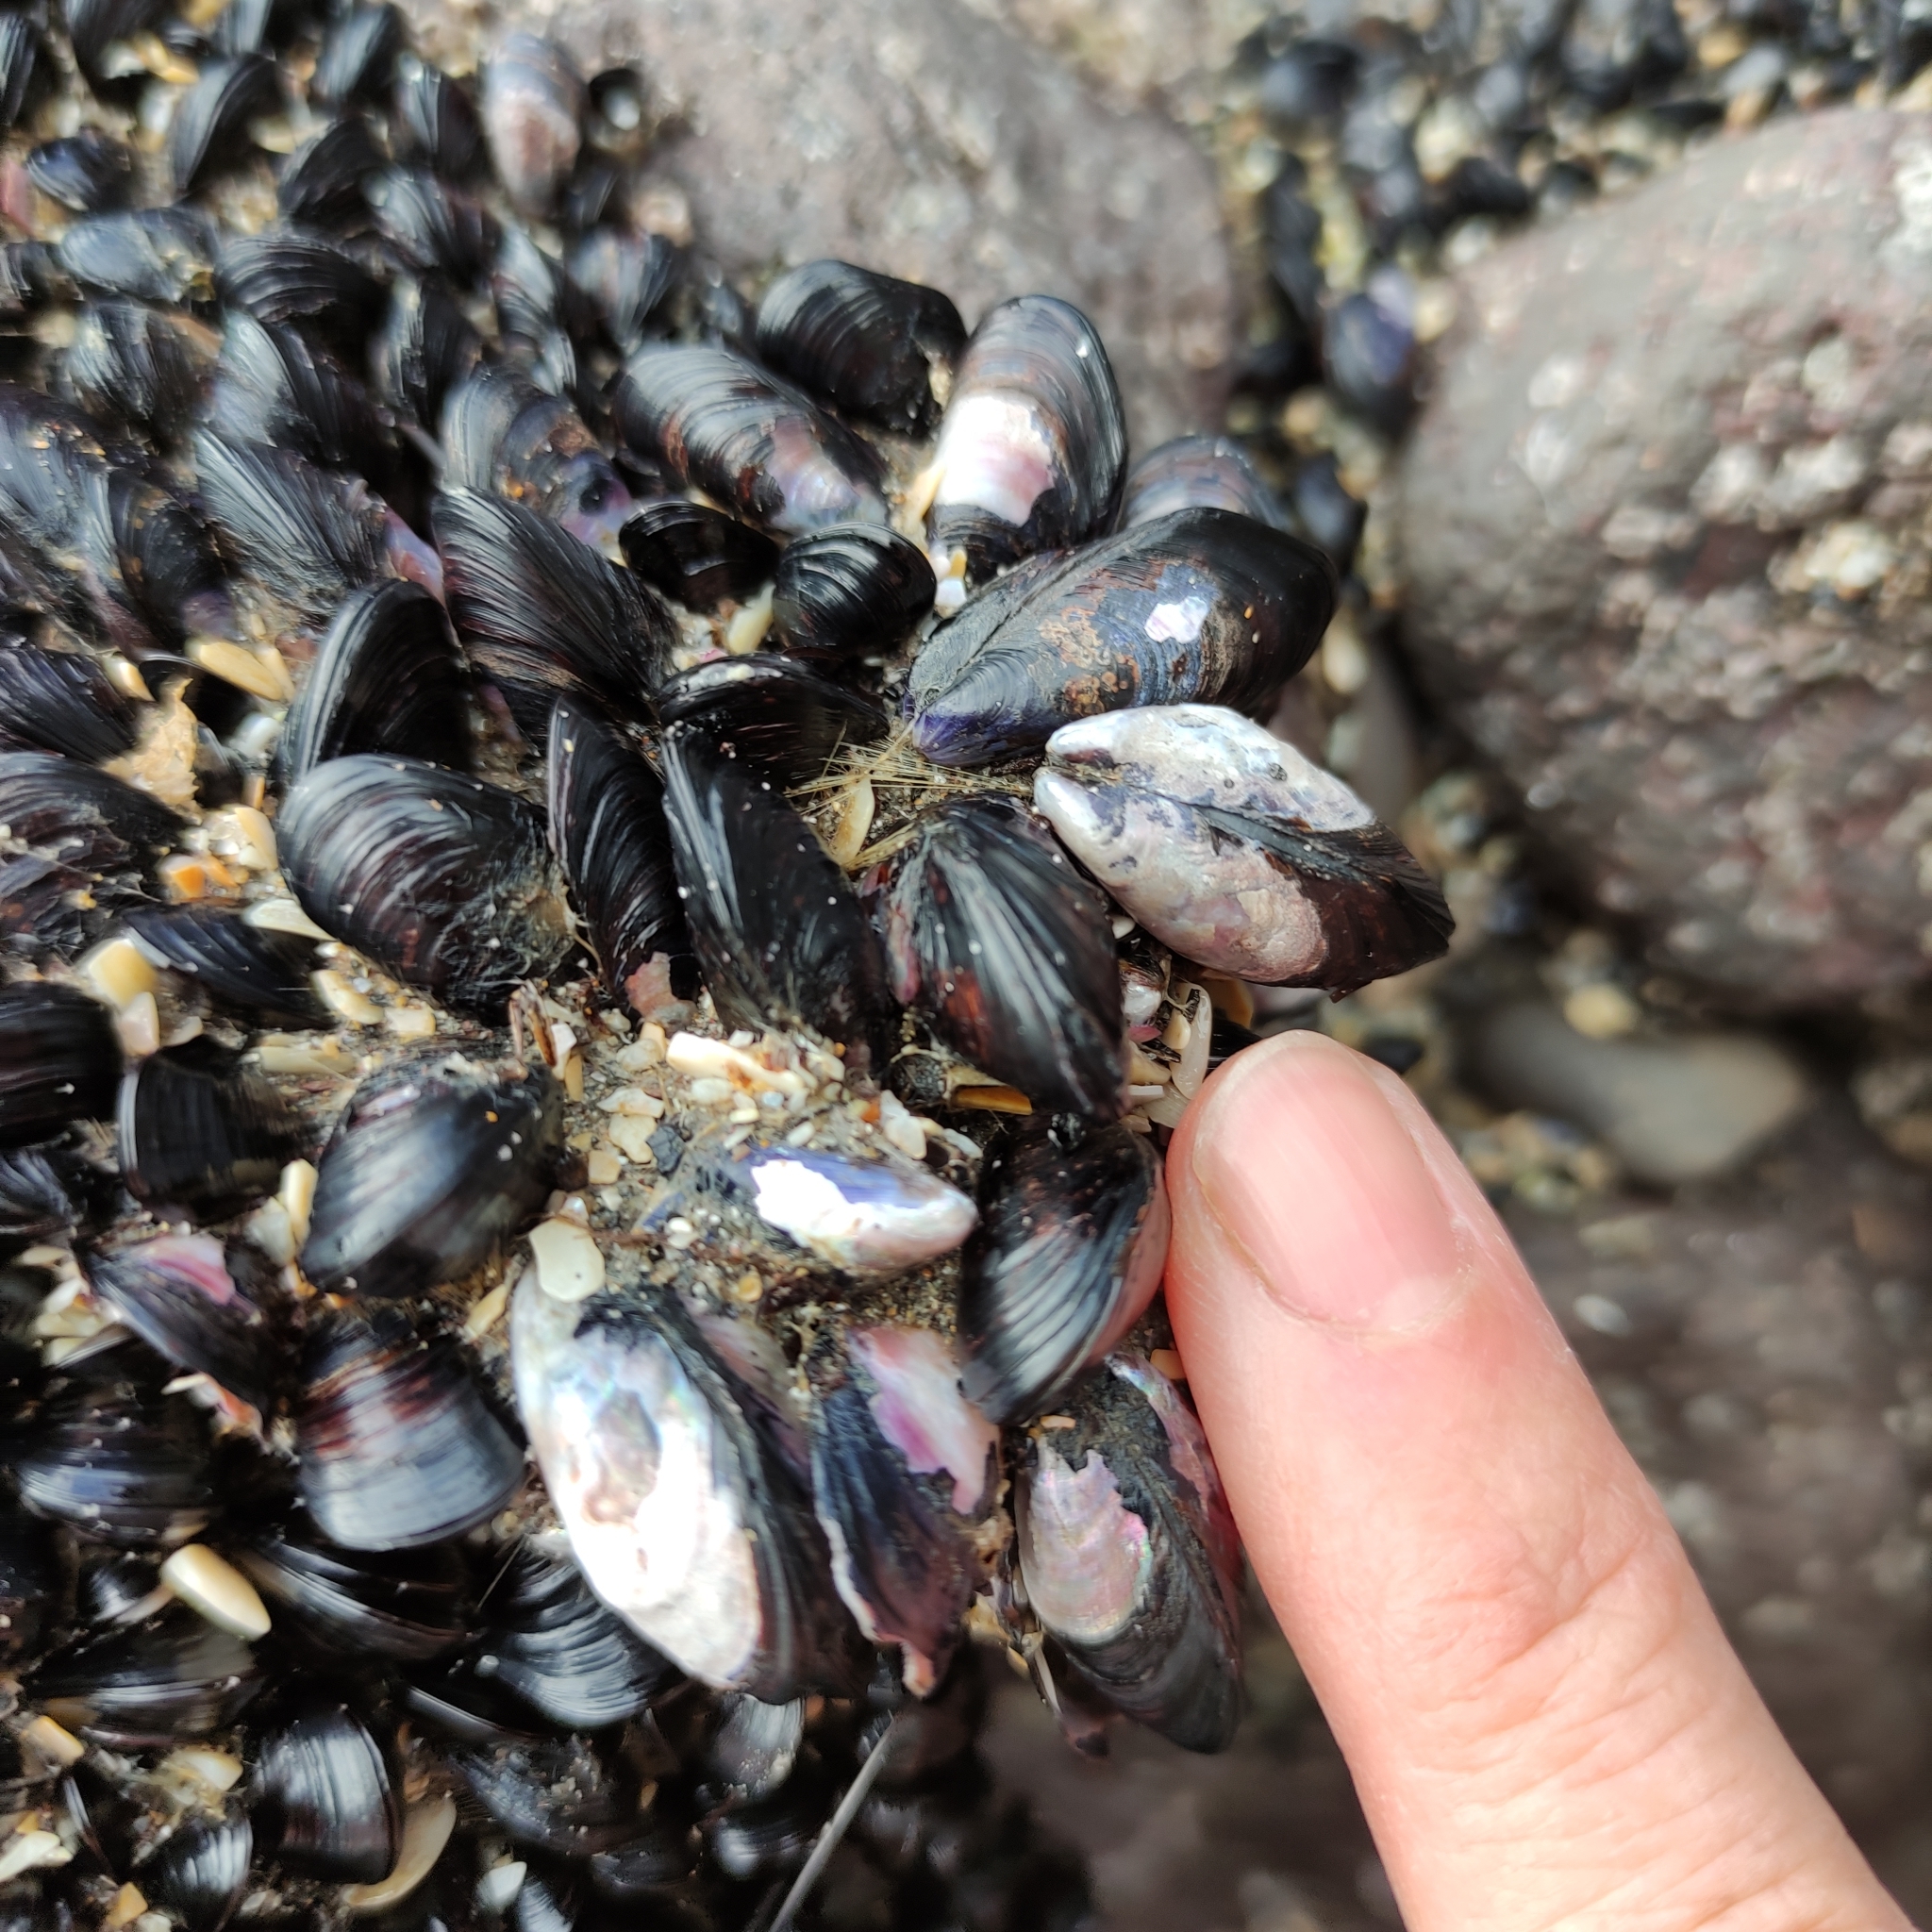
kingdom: Animalia
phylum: Mollusca
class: Bivalvia
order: Mytilida
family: Mytilidae
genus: Xenostrobus
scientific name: Xenostrobus neozelanicus
